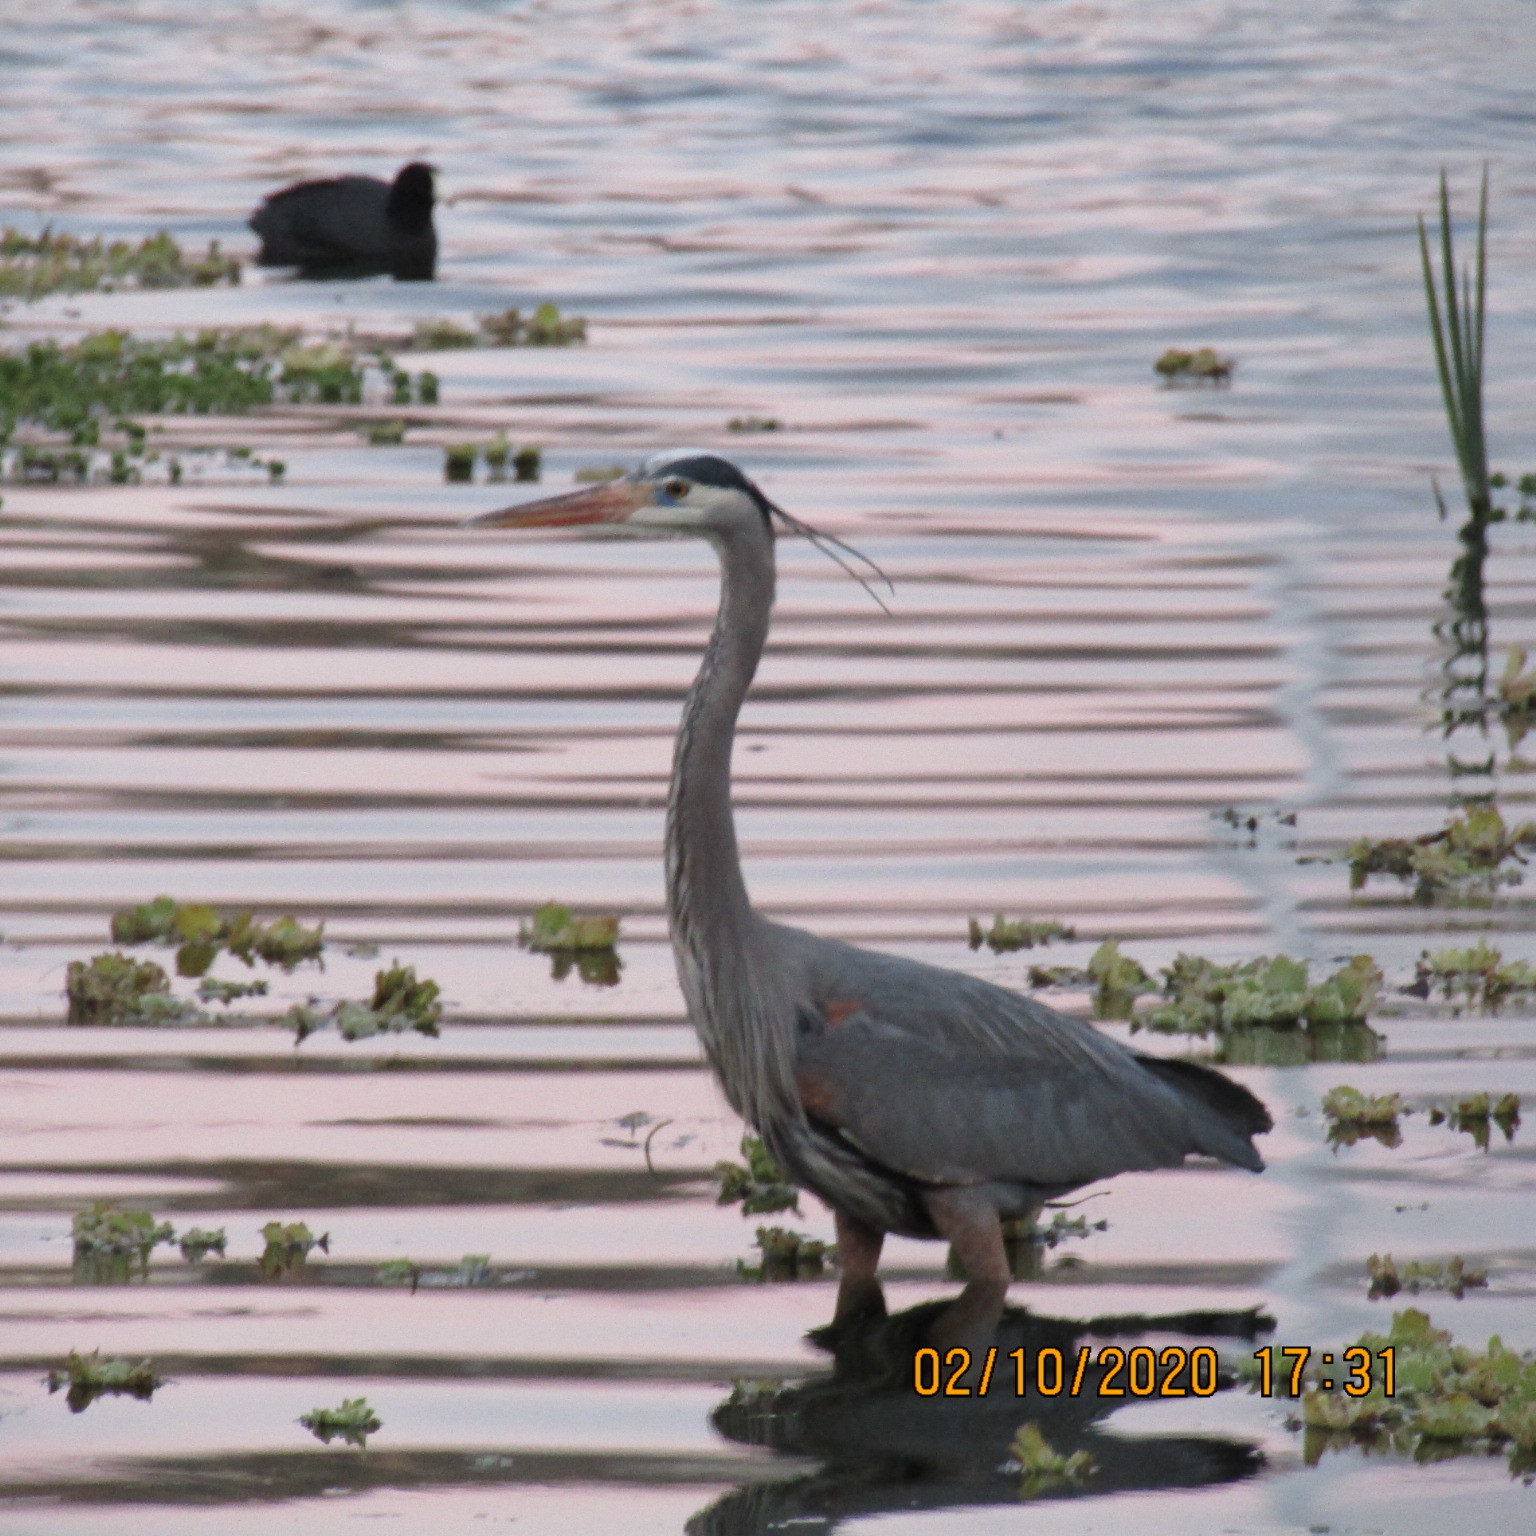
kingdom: Animalia
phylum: Chordata
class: Aves
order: Pelecaniformes
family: Ardeidae
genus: Ardea
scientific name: Ardea herodias
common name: Great blue heron
